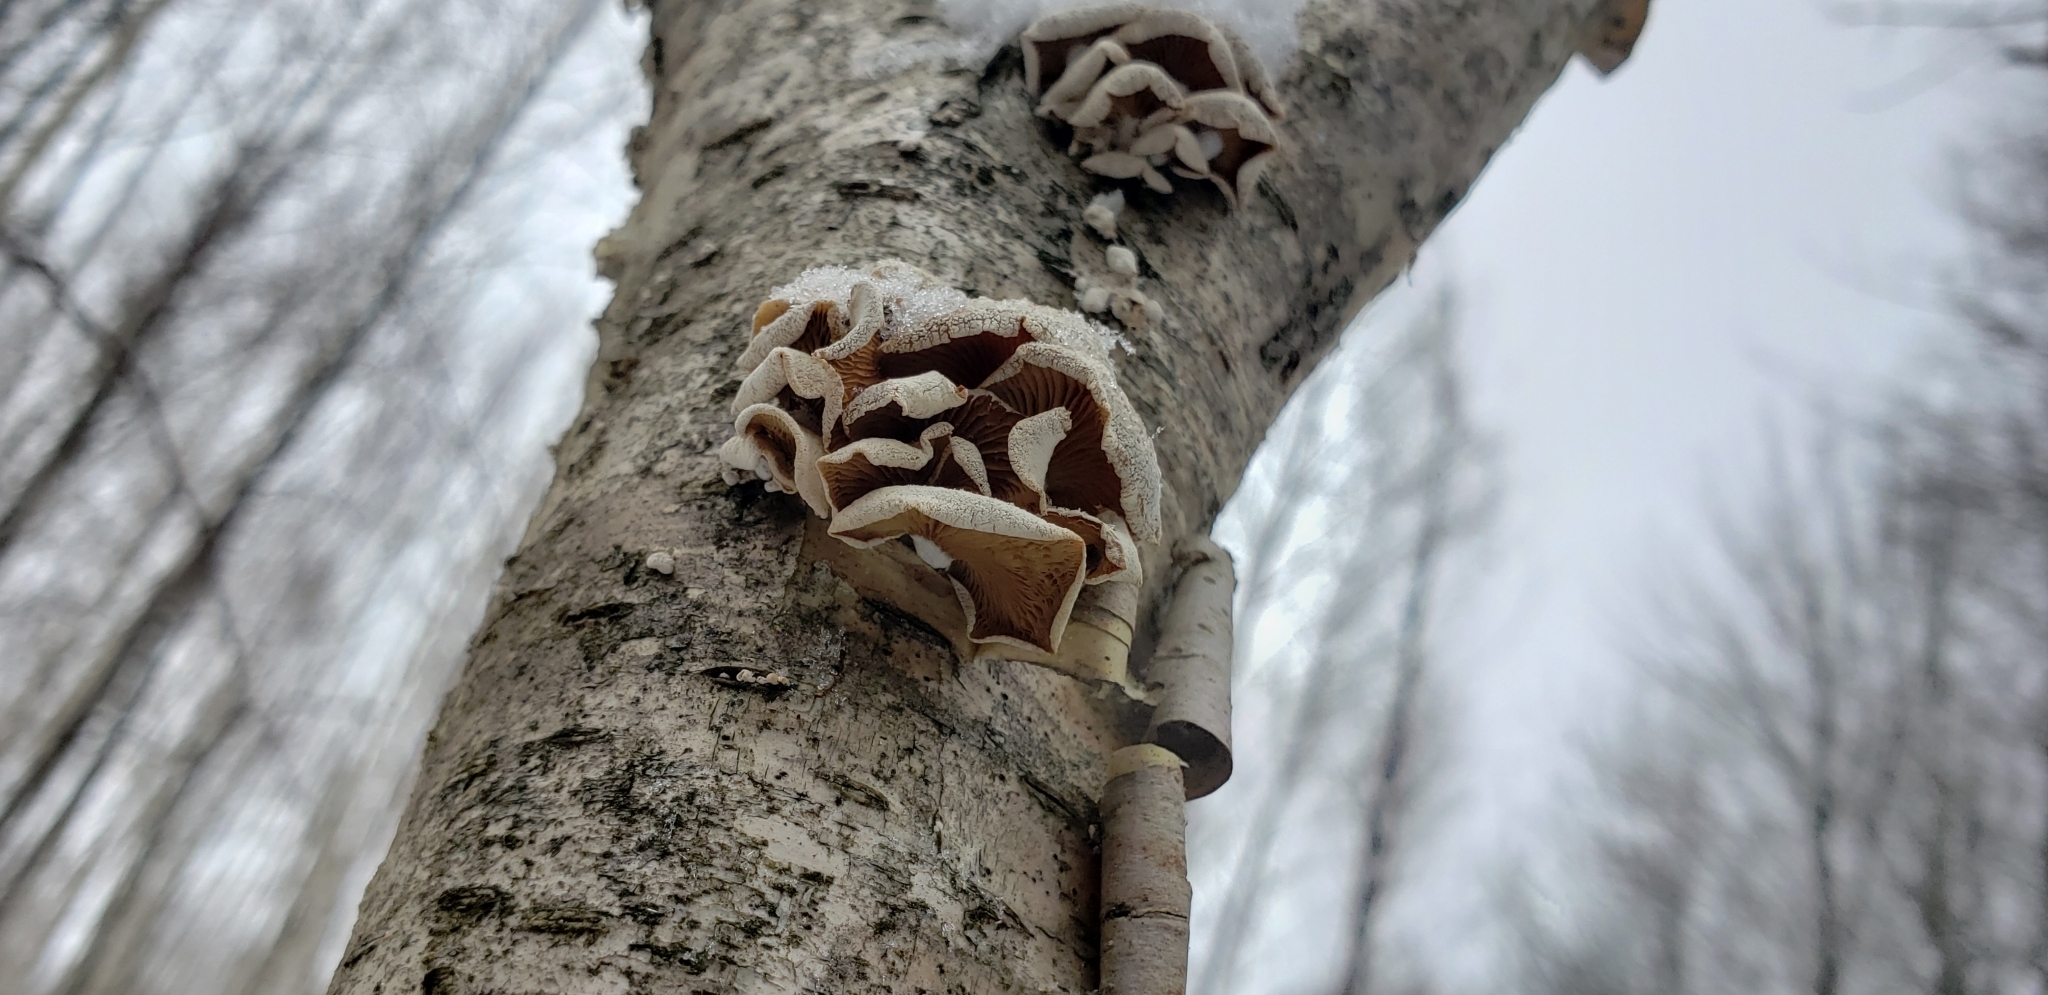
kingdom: Fungi
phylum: Basidiomycota
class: Agaricomycetes
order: Agaricales
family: Mycenaceae
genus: Panellus
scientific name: Panellus stipticus
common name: Bitter oysterling
